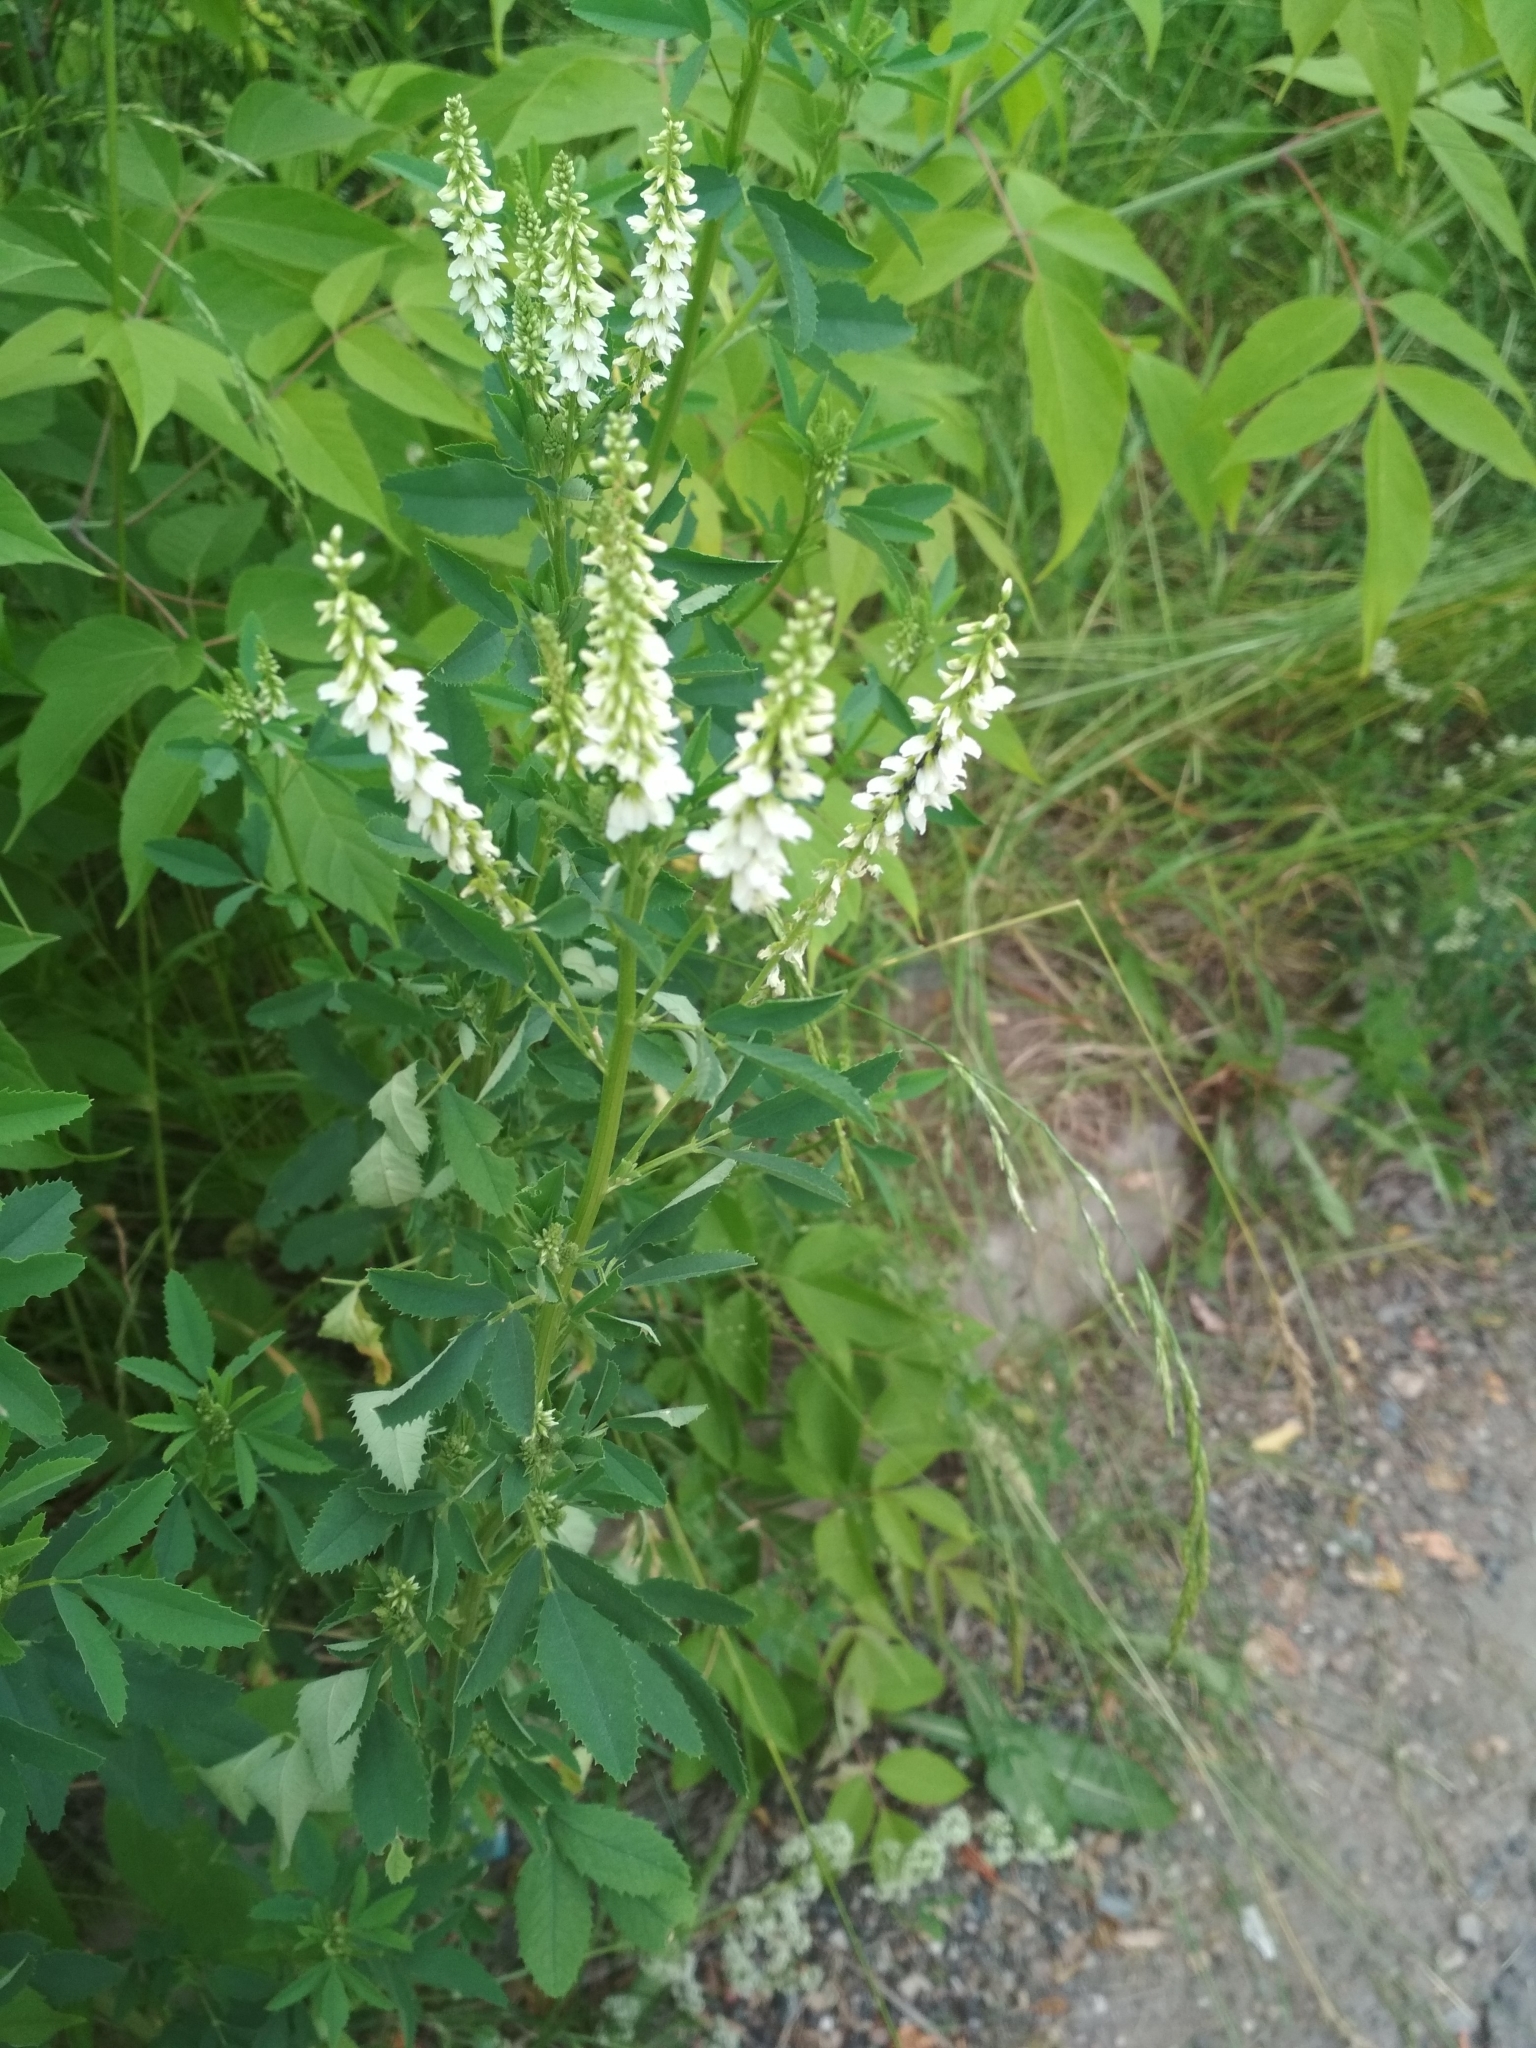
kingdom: Plantae
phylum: Tracheophyta
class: Magnoliopsida
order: Fabales
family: Fabaceae
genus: Melilotus
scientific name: Melilotus albus
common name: White melilot
